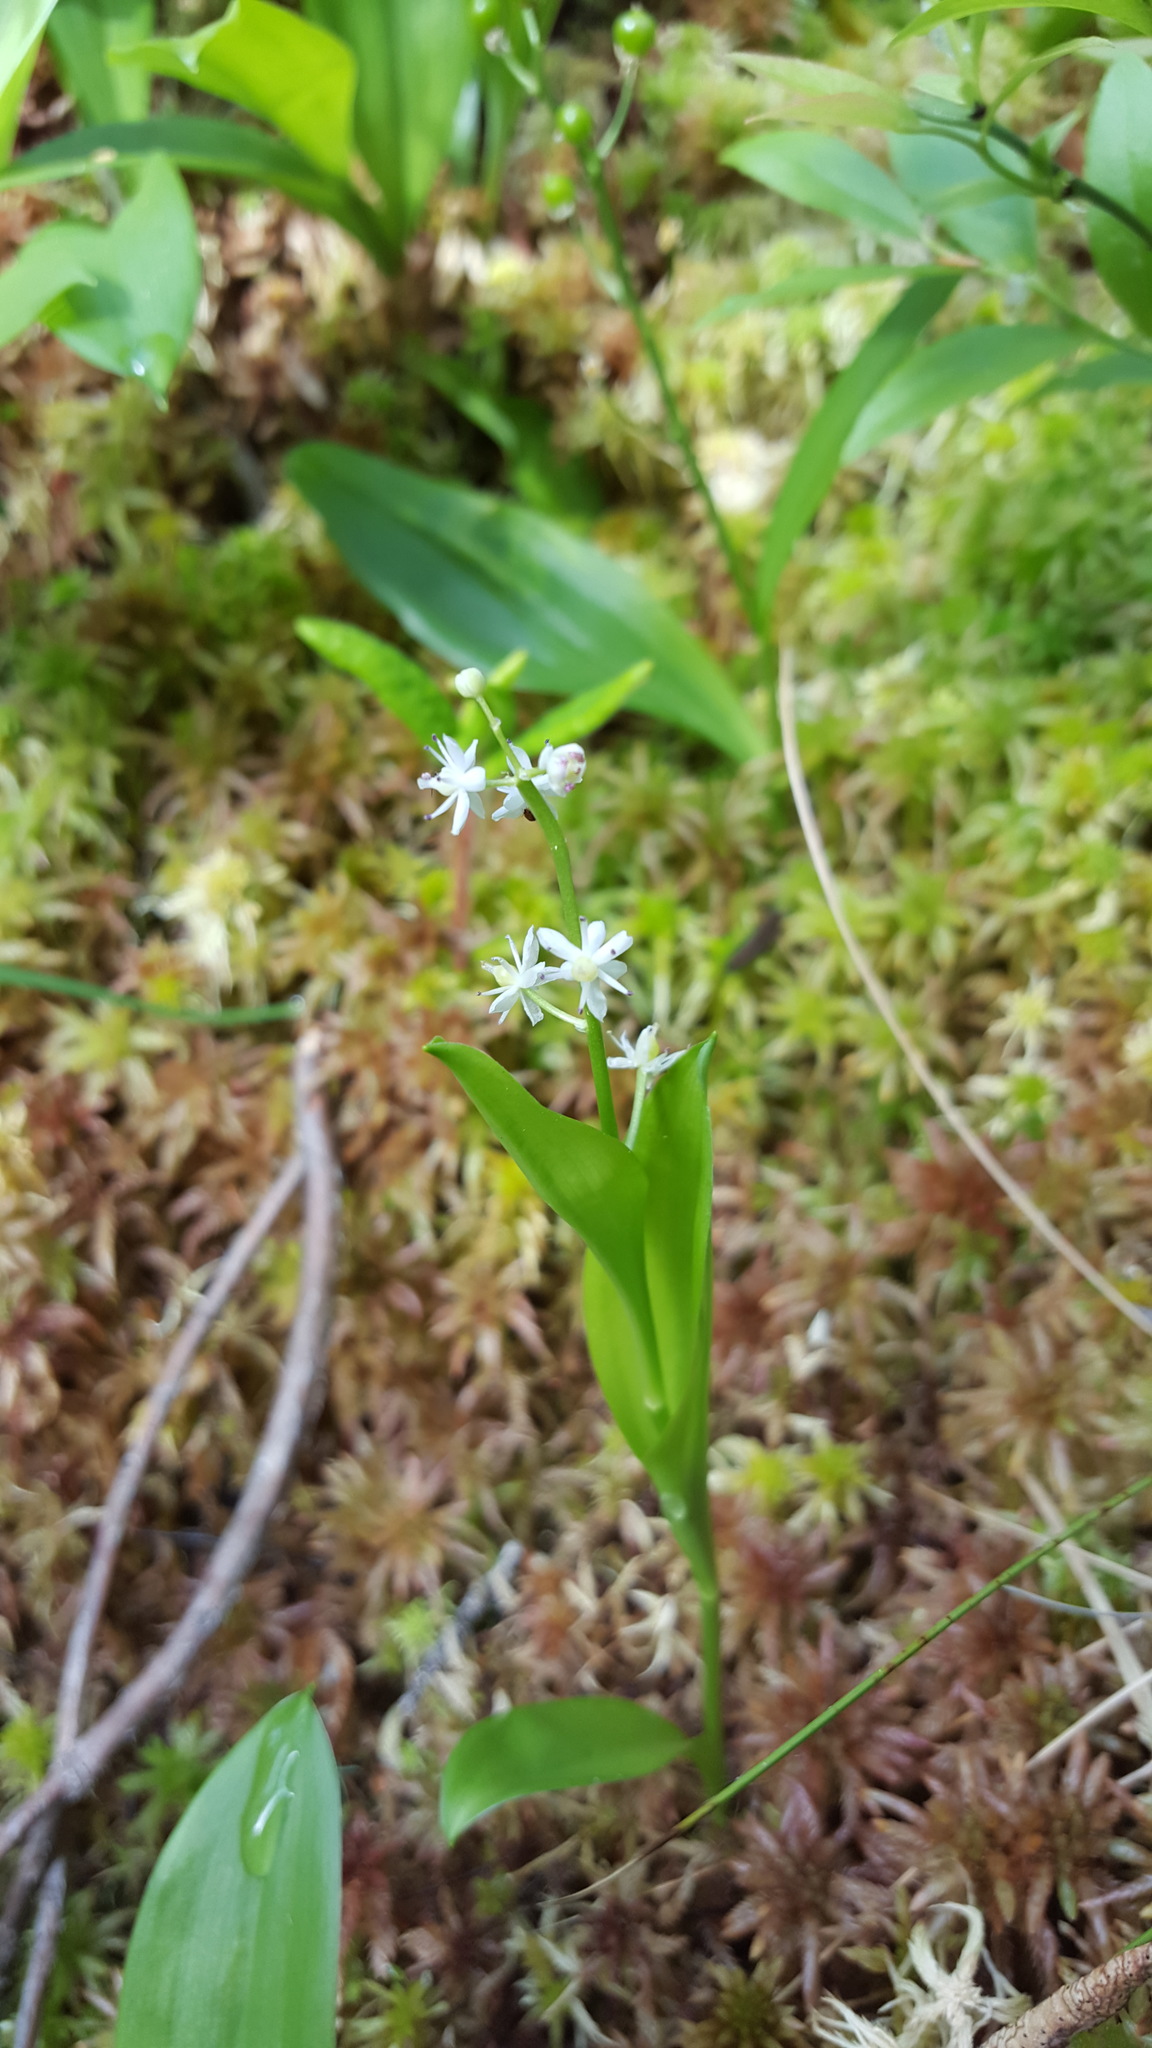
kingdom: Plantae
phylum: Tracheophyta
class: Liliopsida
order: Asparagales
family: Asparagaceae
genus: Maianthemum
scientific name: Maianthemum trifolium
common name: Swamp false solomon's seal
